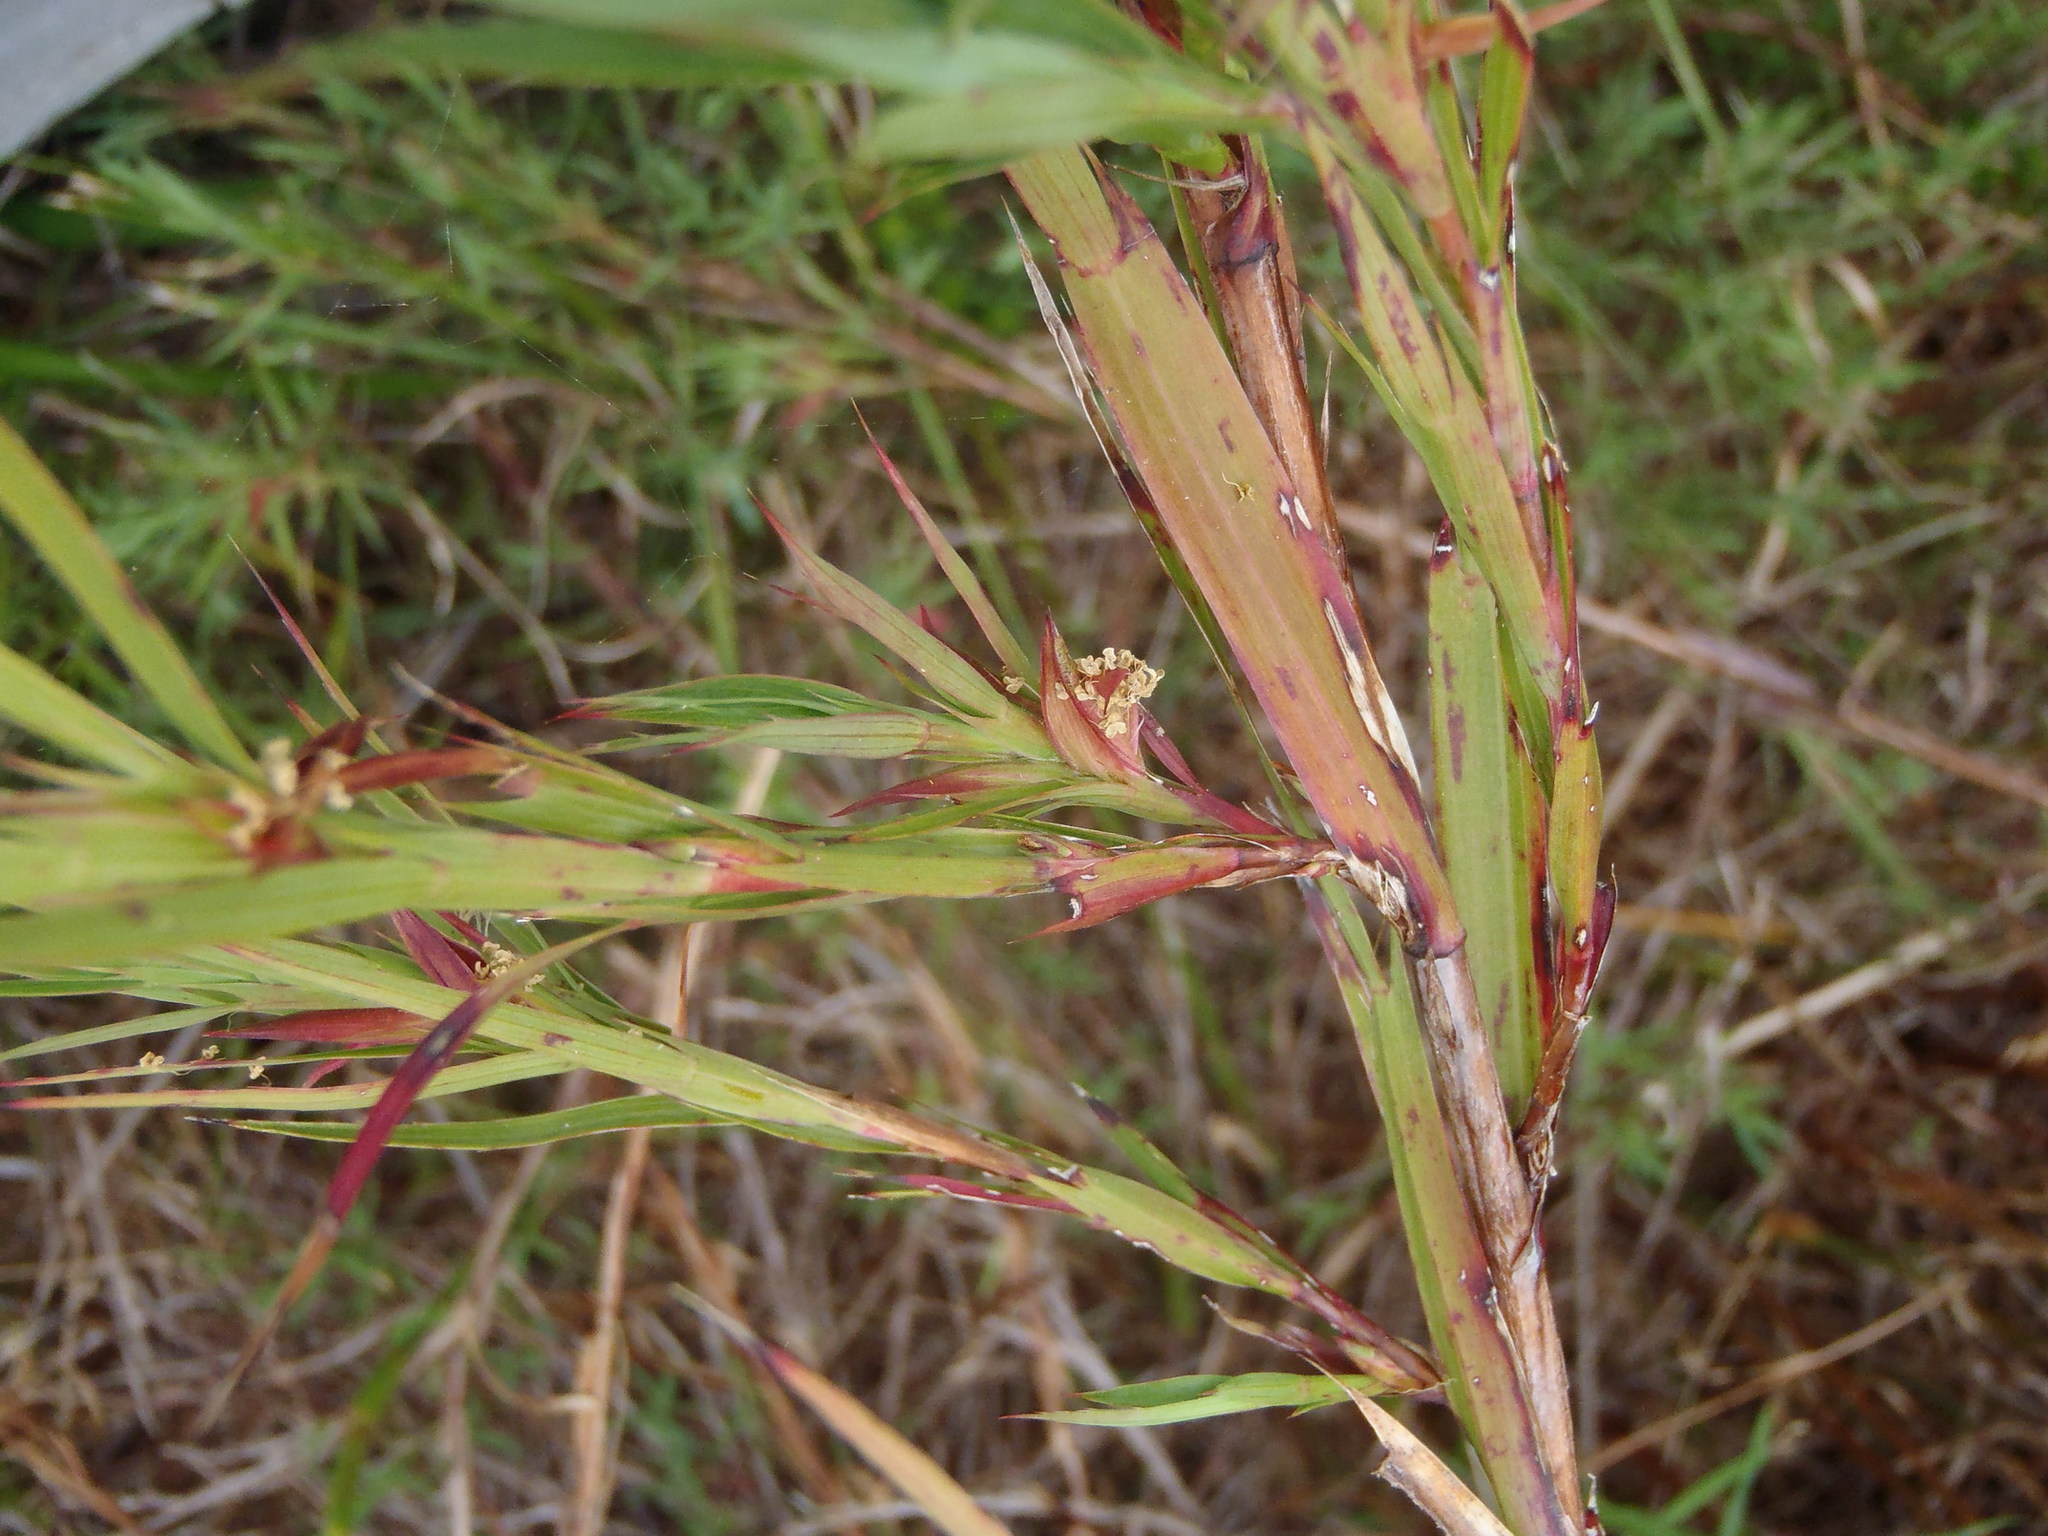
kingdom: Plantae
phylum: Tracheophyta
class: Magnoliopsida
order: Rosales
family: Rosaceae
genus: Cliffortia
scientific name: Cliffortia graminea
